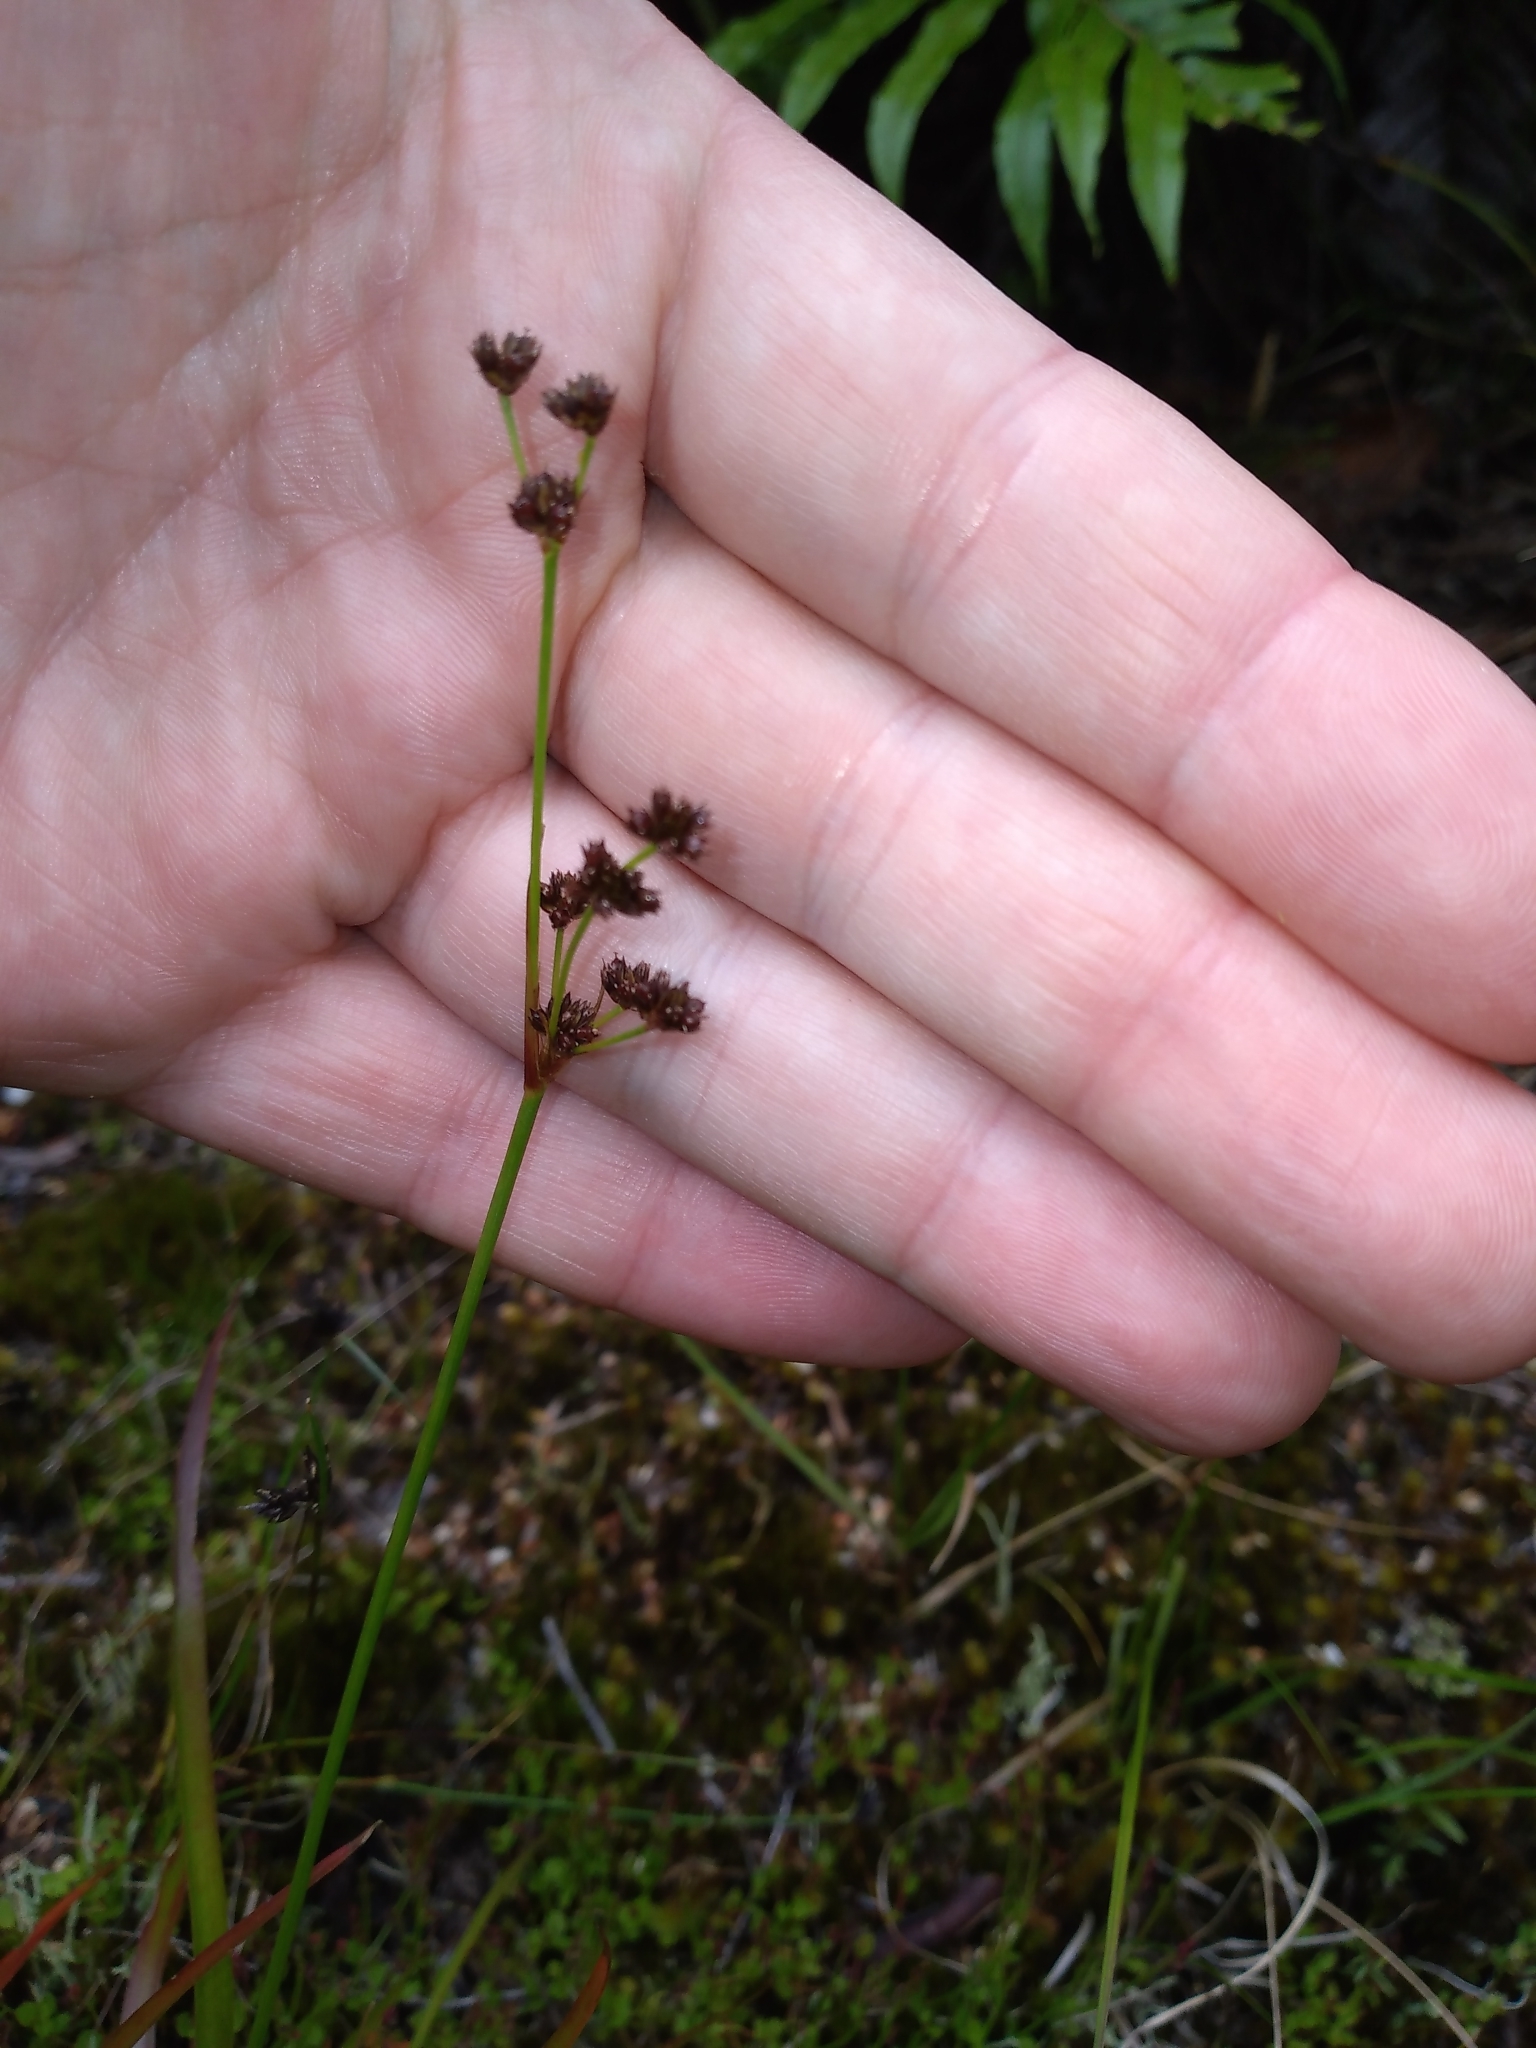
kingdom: Plantae
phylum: Tracheophyta
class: Liliopsida
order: Poales
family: Juncaceae
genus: Juncus
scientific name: Juncus planifolius
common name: Broadleaf rush
